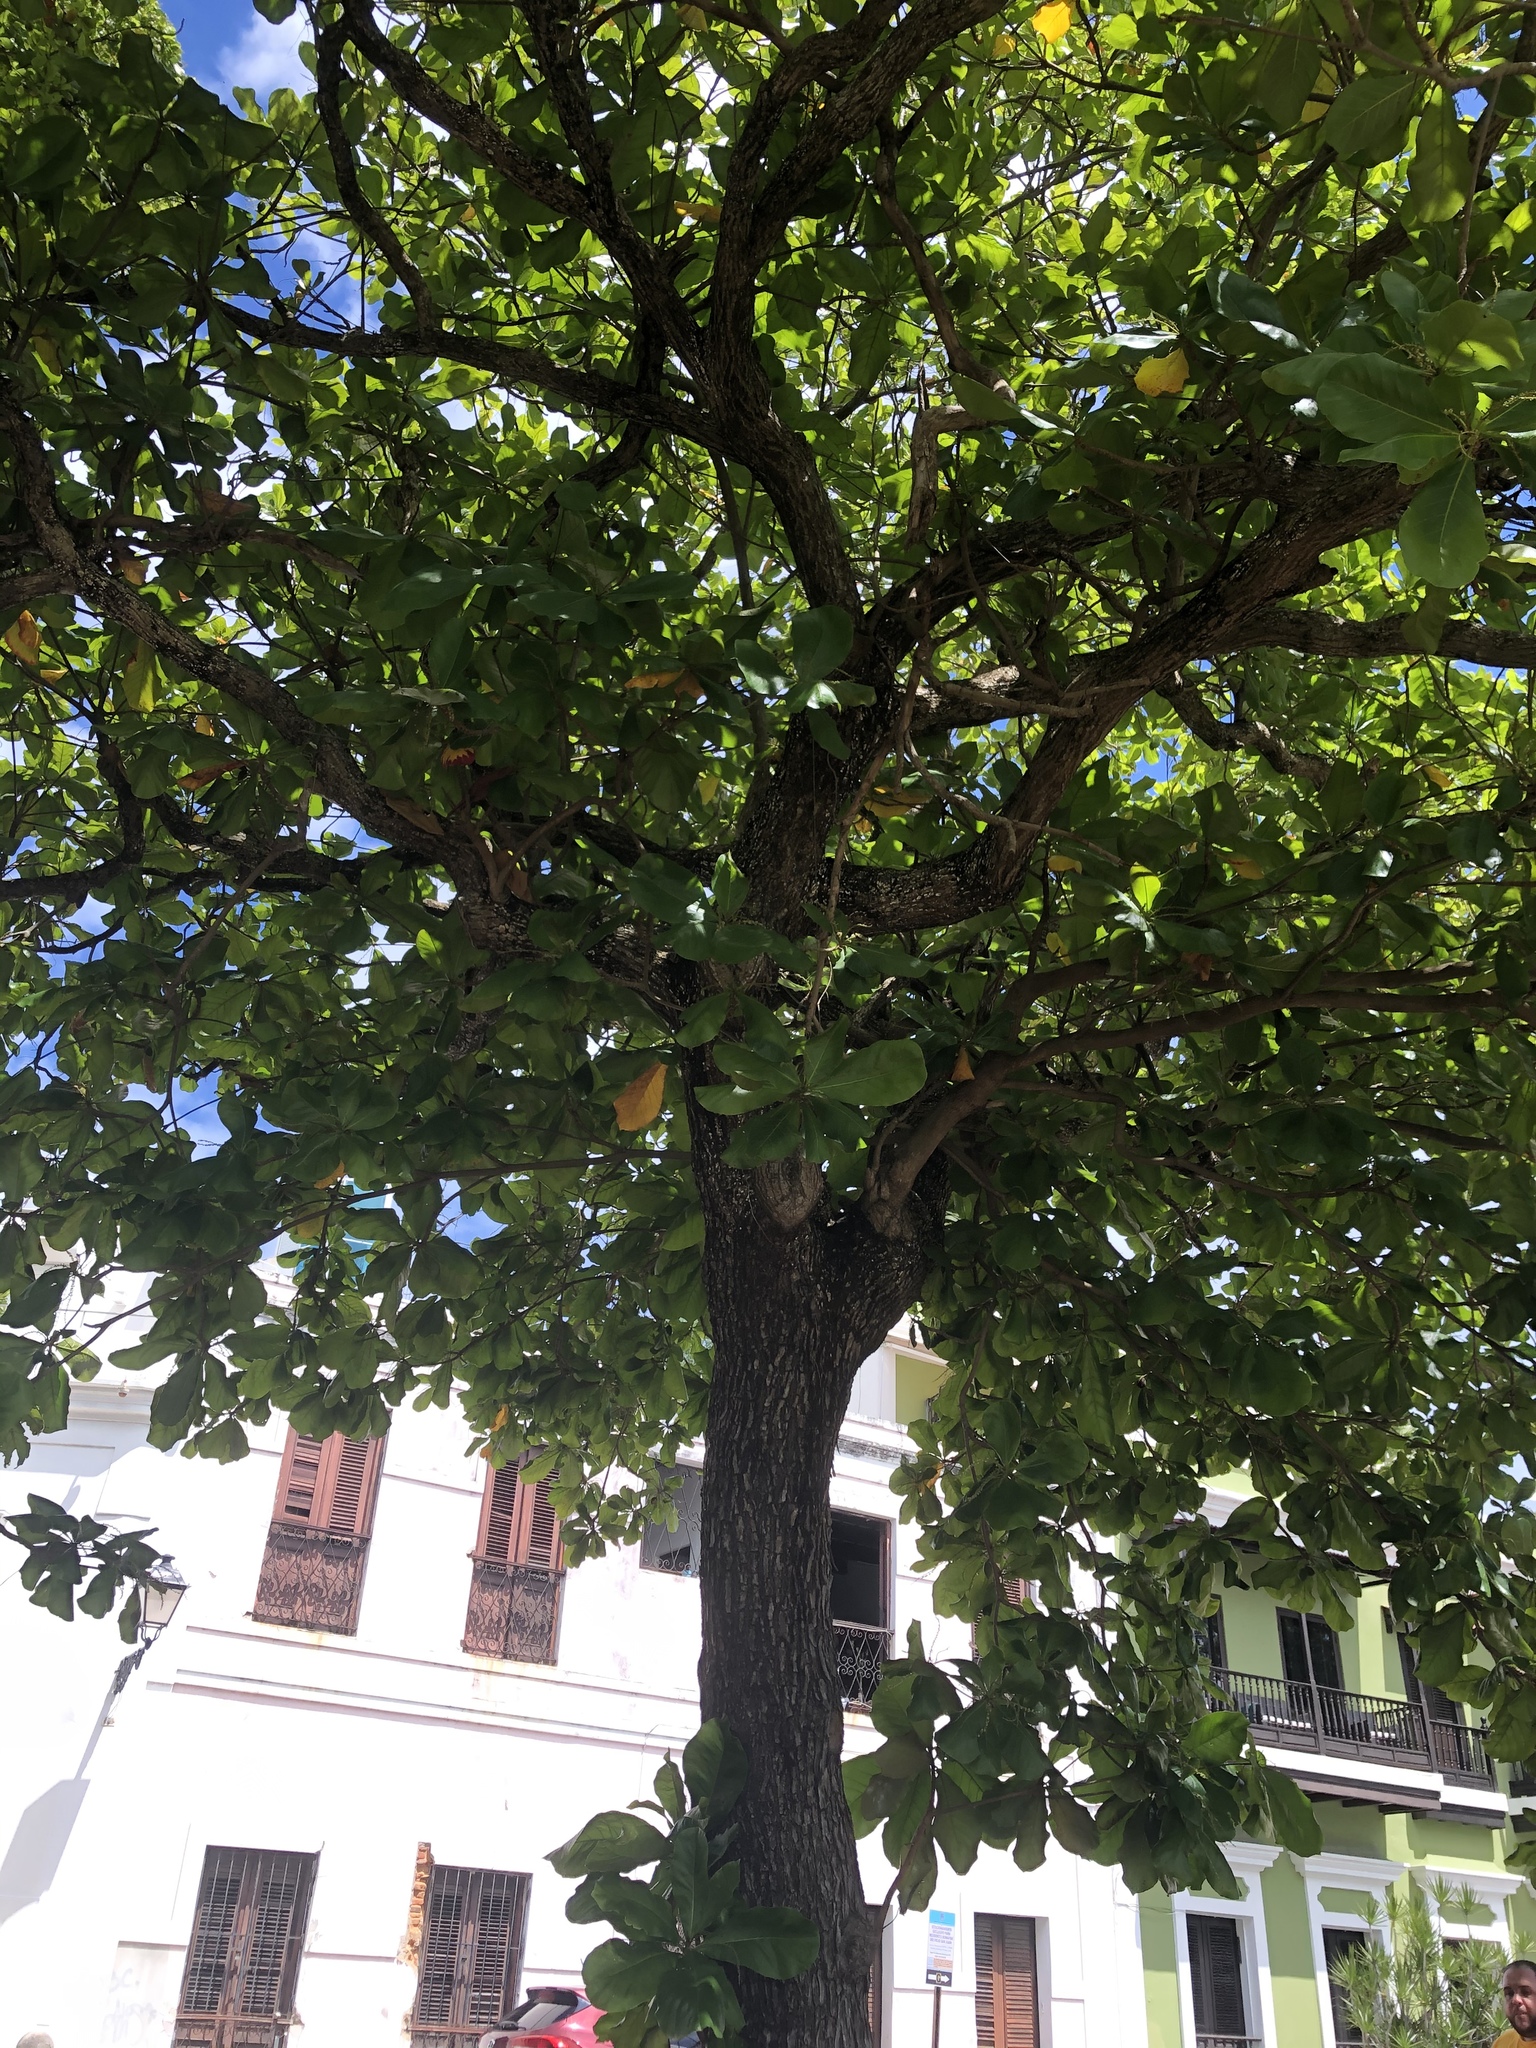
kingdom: Plantae
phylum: Tracheophyta
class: Magnoliopsida
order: Myrtales
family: Combretaceae
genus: Terminalia
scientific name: Terminalia catappa
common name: Tropical almond
